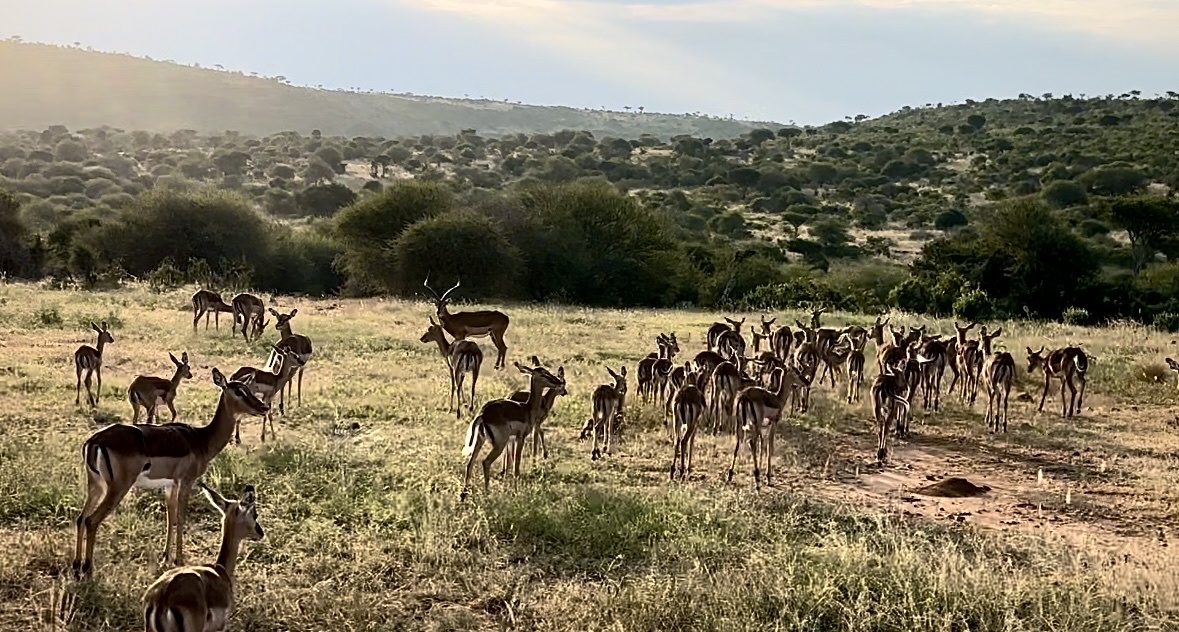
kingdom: Animalia
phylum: Chordata
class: Mammalia
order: Artiodactyla
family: Bovidae
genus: Aepyceros
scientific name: Aepyceros melampus
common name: Impala
